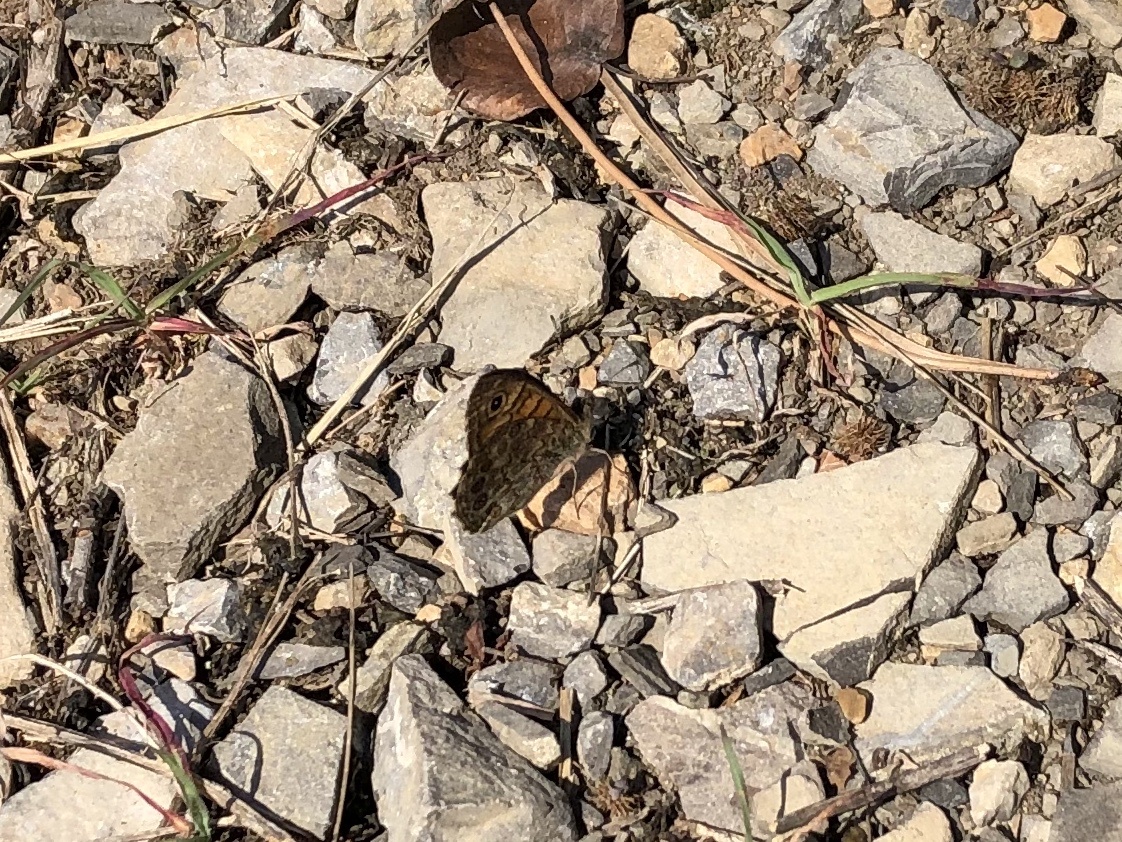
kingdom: Animalia
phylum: Arthropoda
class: Insecta
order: Lepidoptera
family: Nymphalidae
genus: Pararge
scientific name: Pararge Lasiommata megera
